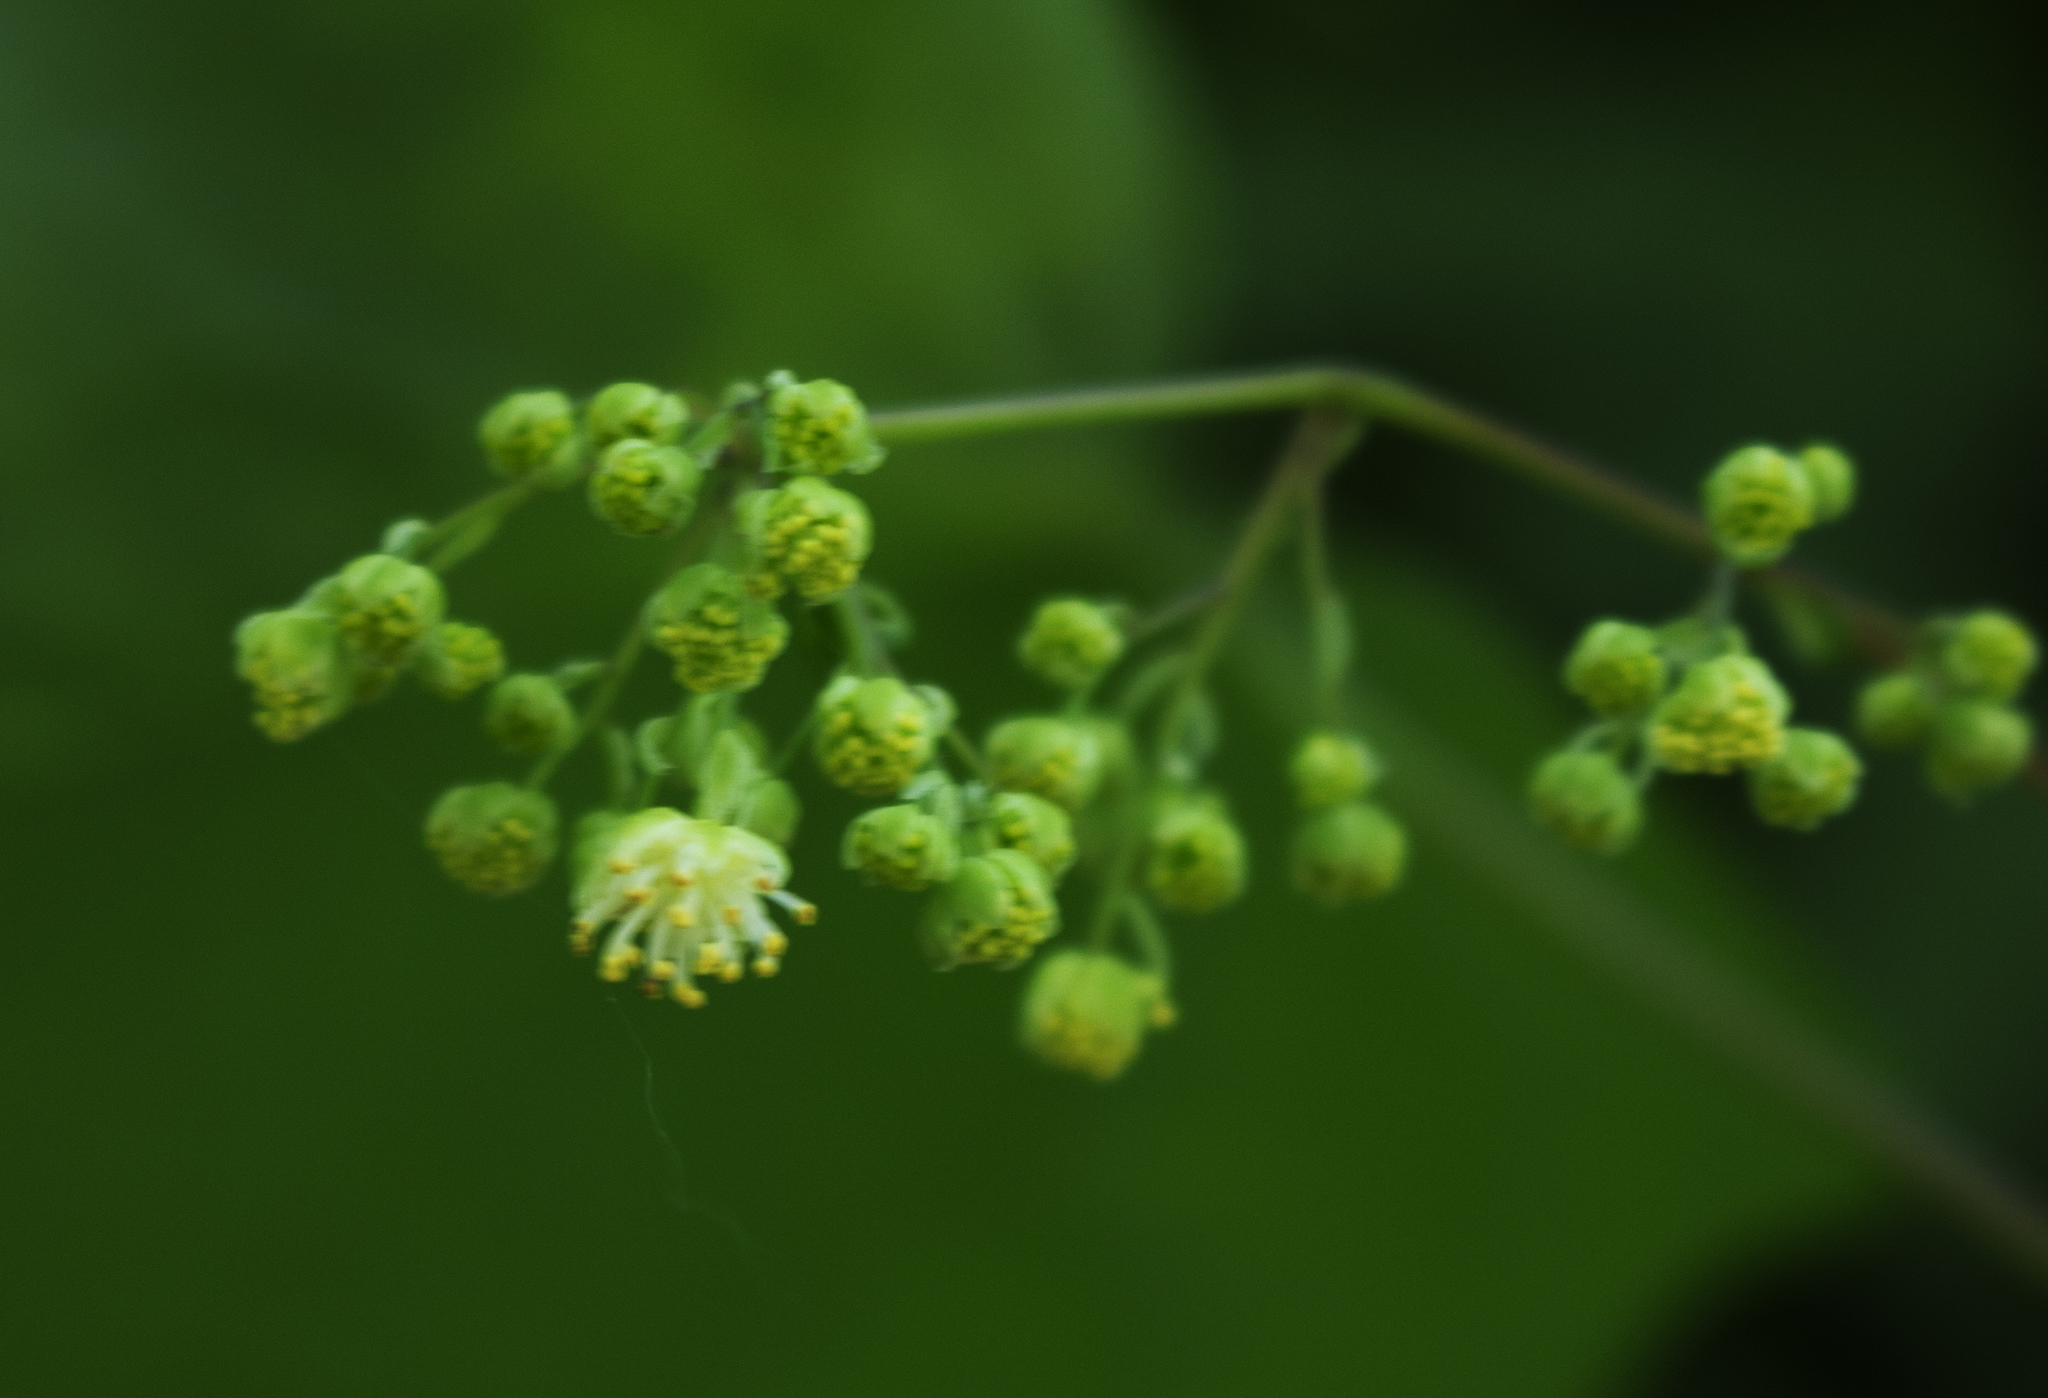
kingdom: Plantae
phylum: Tracheophyta
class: Magnoliopsida
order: Ranunculales
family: Menispermaceae
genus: Menispermum
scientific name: Menispermum canadense
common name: Moonseed
